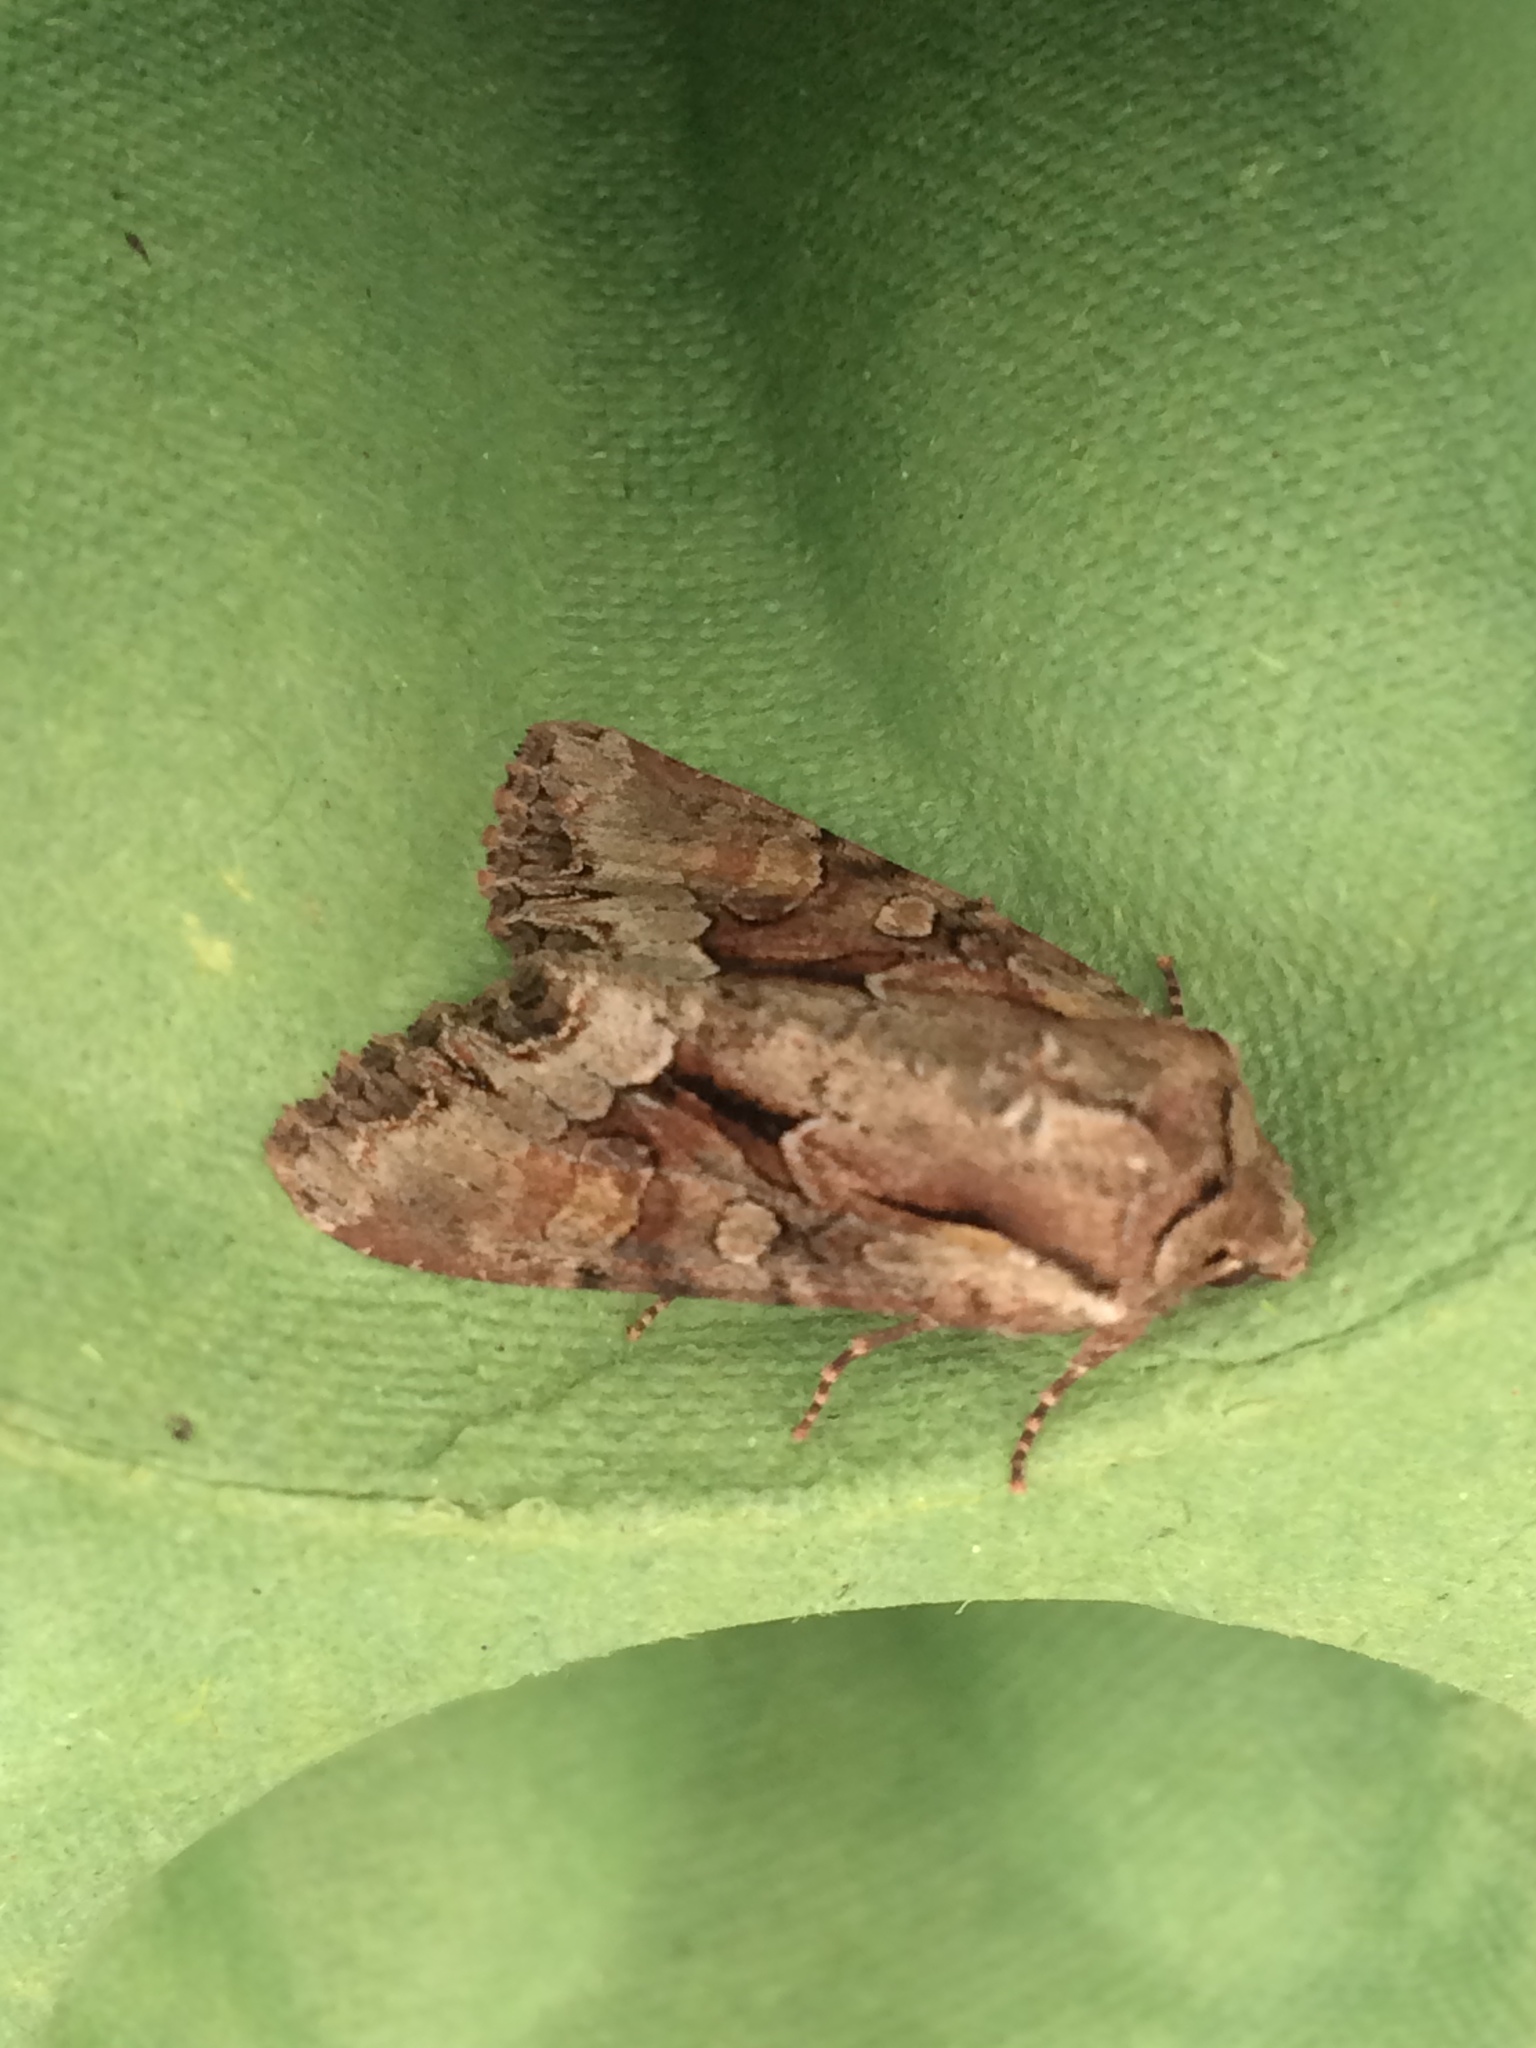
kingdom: Animalia
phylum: Arthropoda
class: Insecta
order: Lepidoptera
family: Noctuidae
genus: Lacanobia
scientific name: Lacanobia w-latinum
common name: Light brocade
